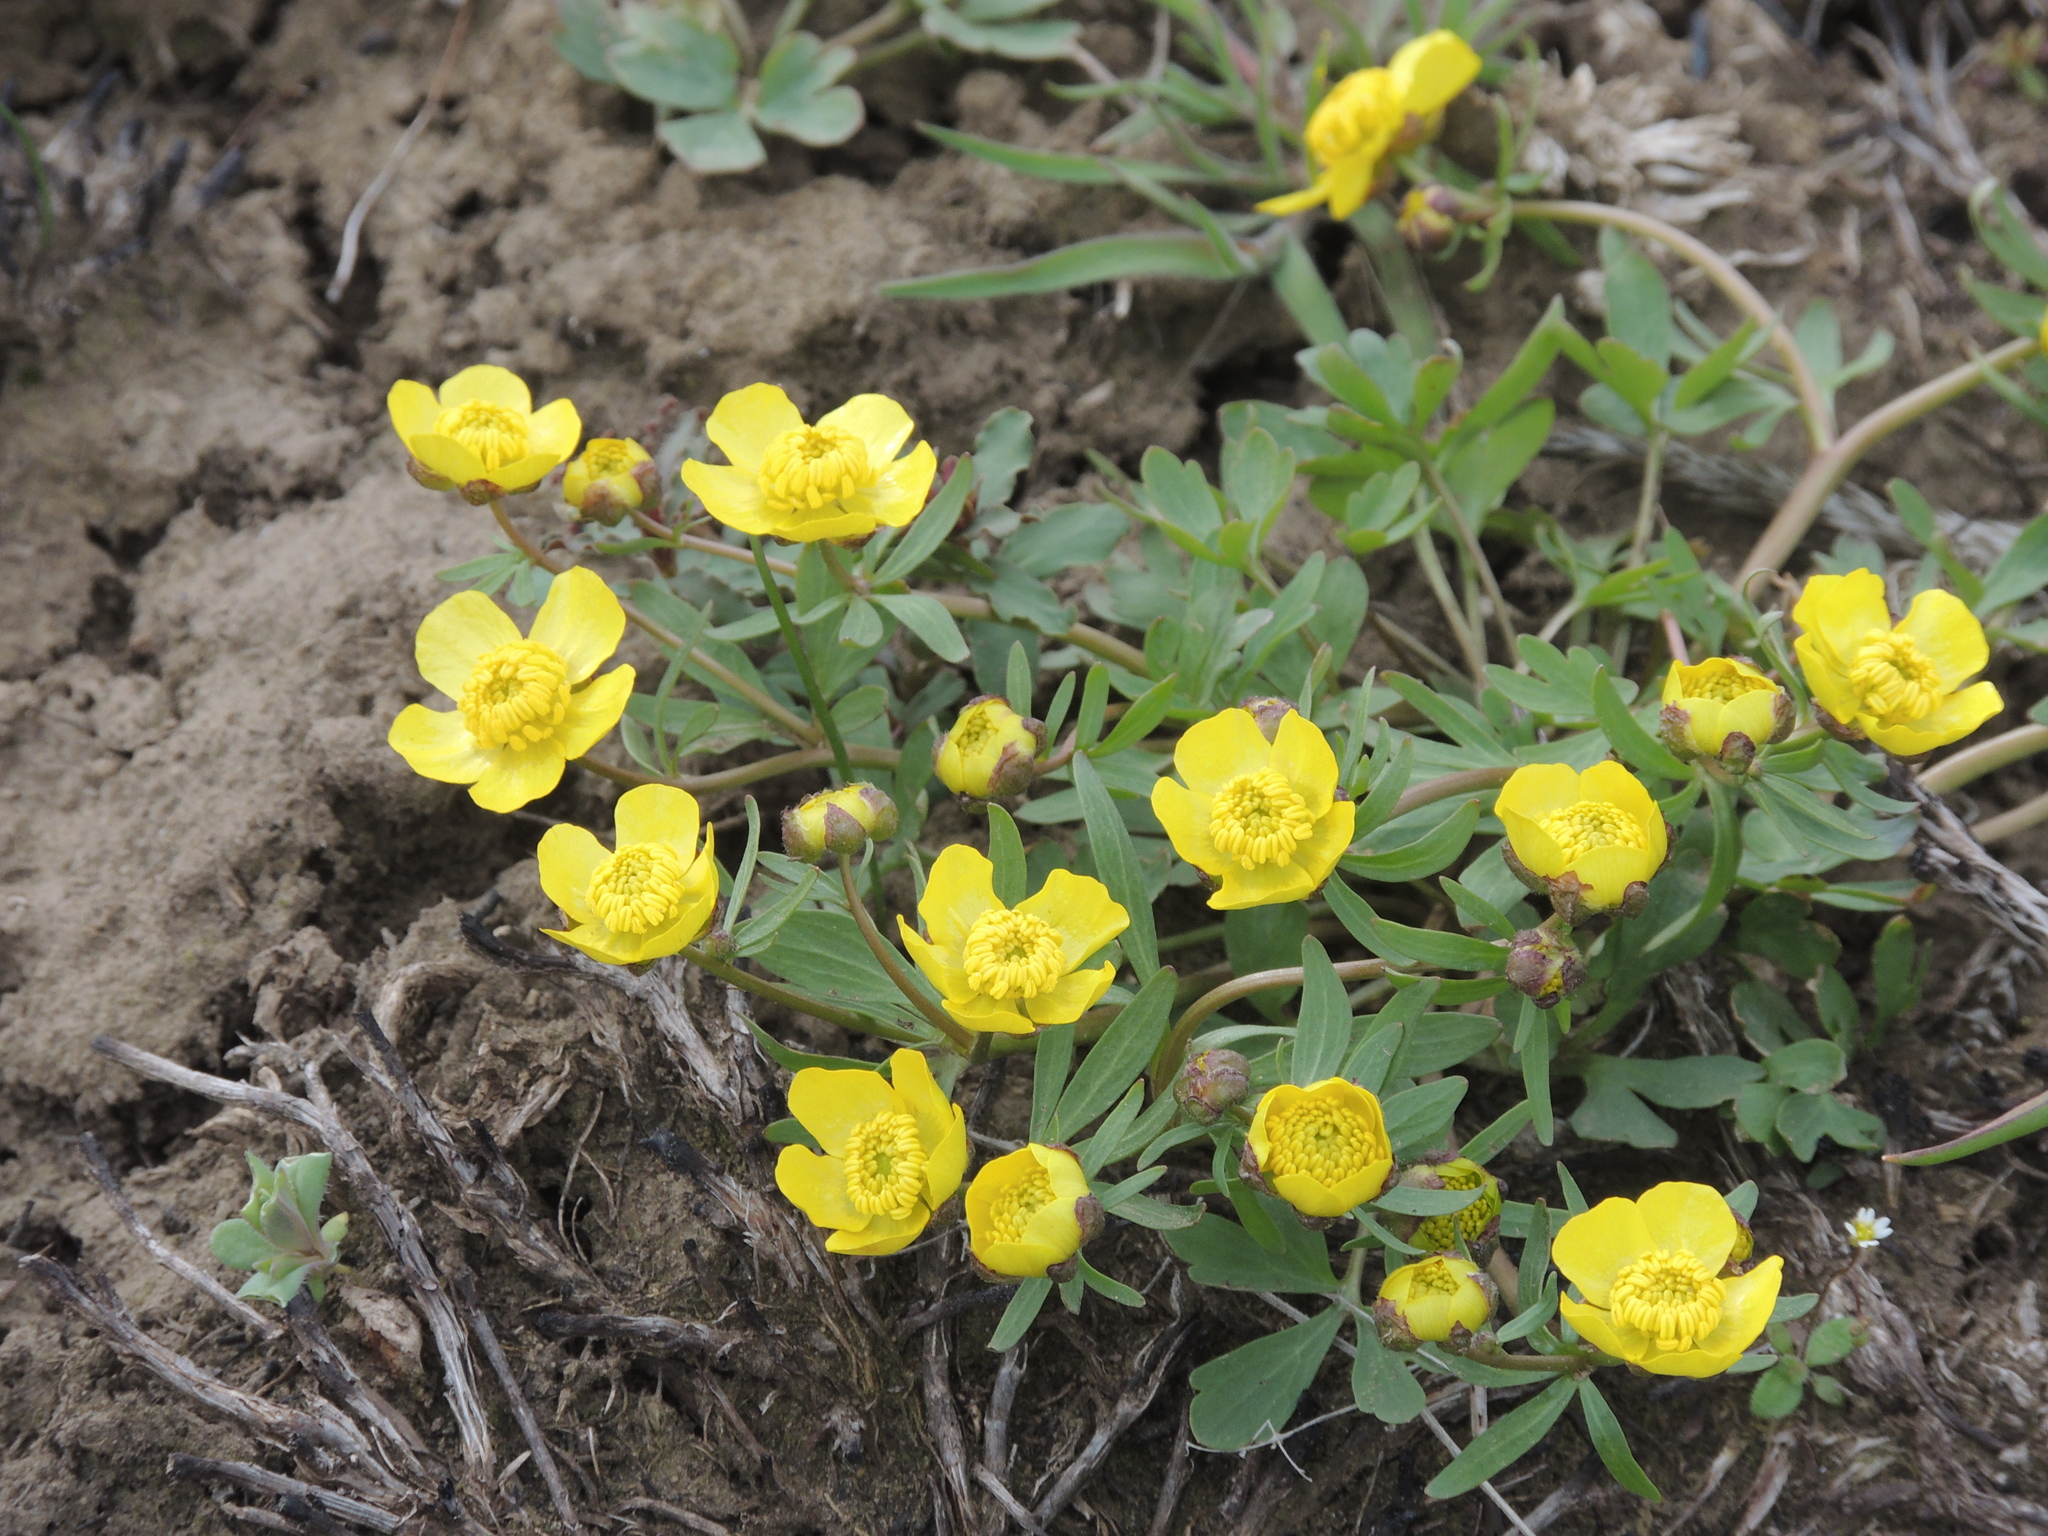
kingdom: Plantae
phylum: Tracheophyta
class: Magnoliopsida
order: Ranunculales
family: Ranunculaceae
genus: Ranunculus
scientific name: Ranunculus polyrhizos
